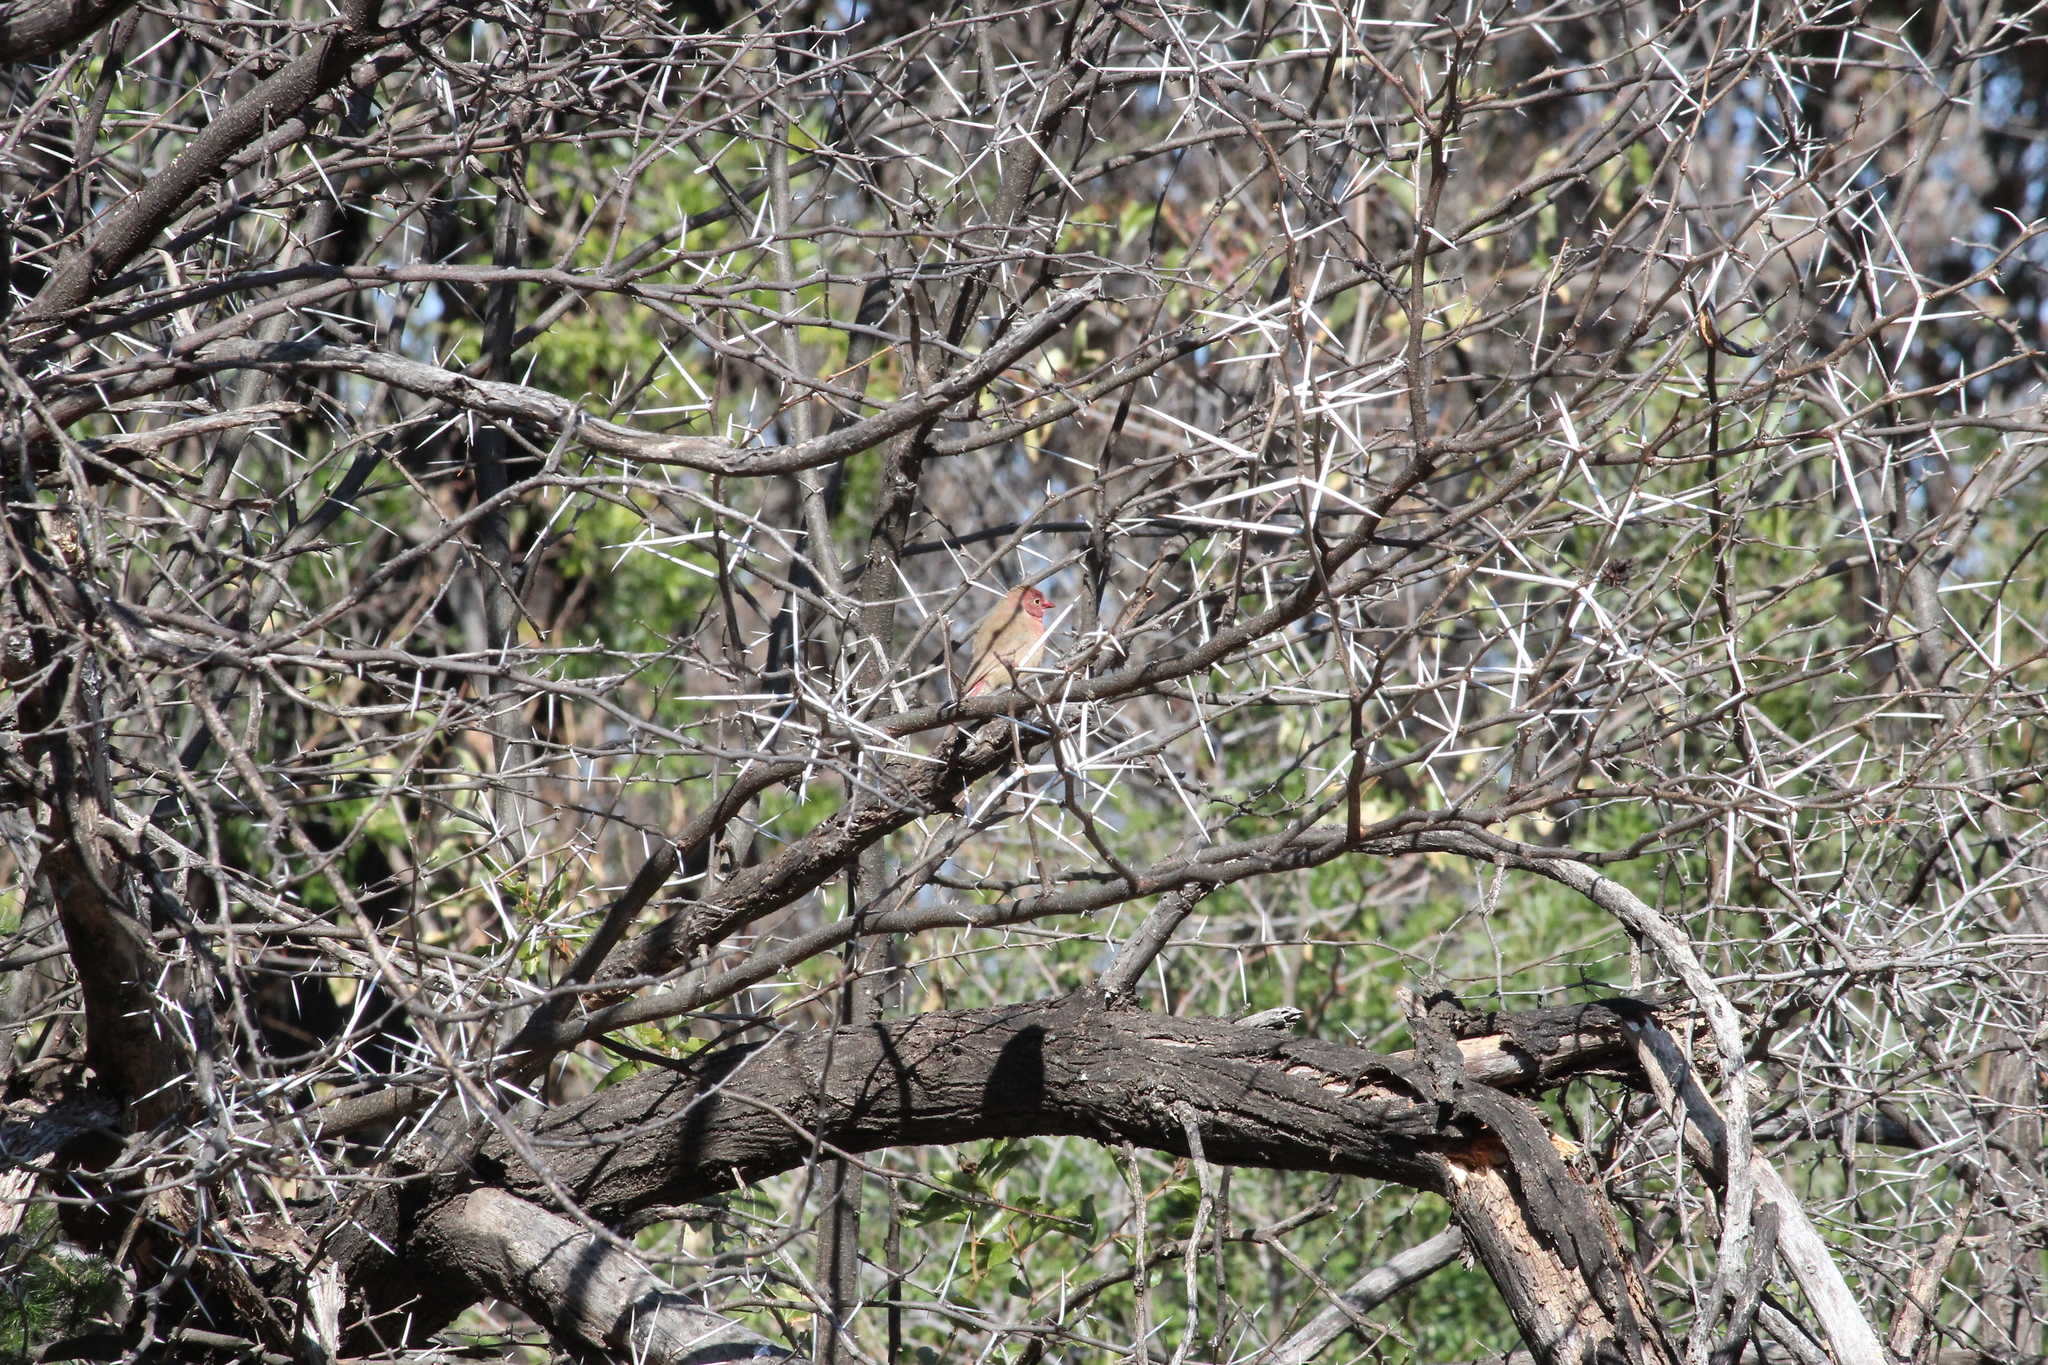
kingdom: Animalia
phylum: Chordata
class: Aves
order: Passeriformes
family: Estrildidae
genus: Lagonosticta
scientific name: Lagonosticta senegala
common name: Red-billed firefinch
